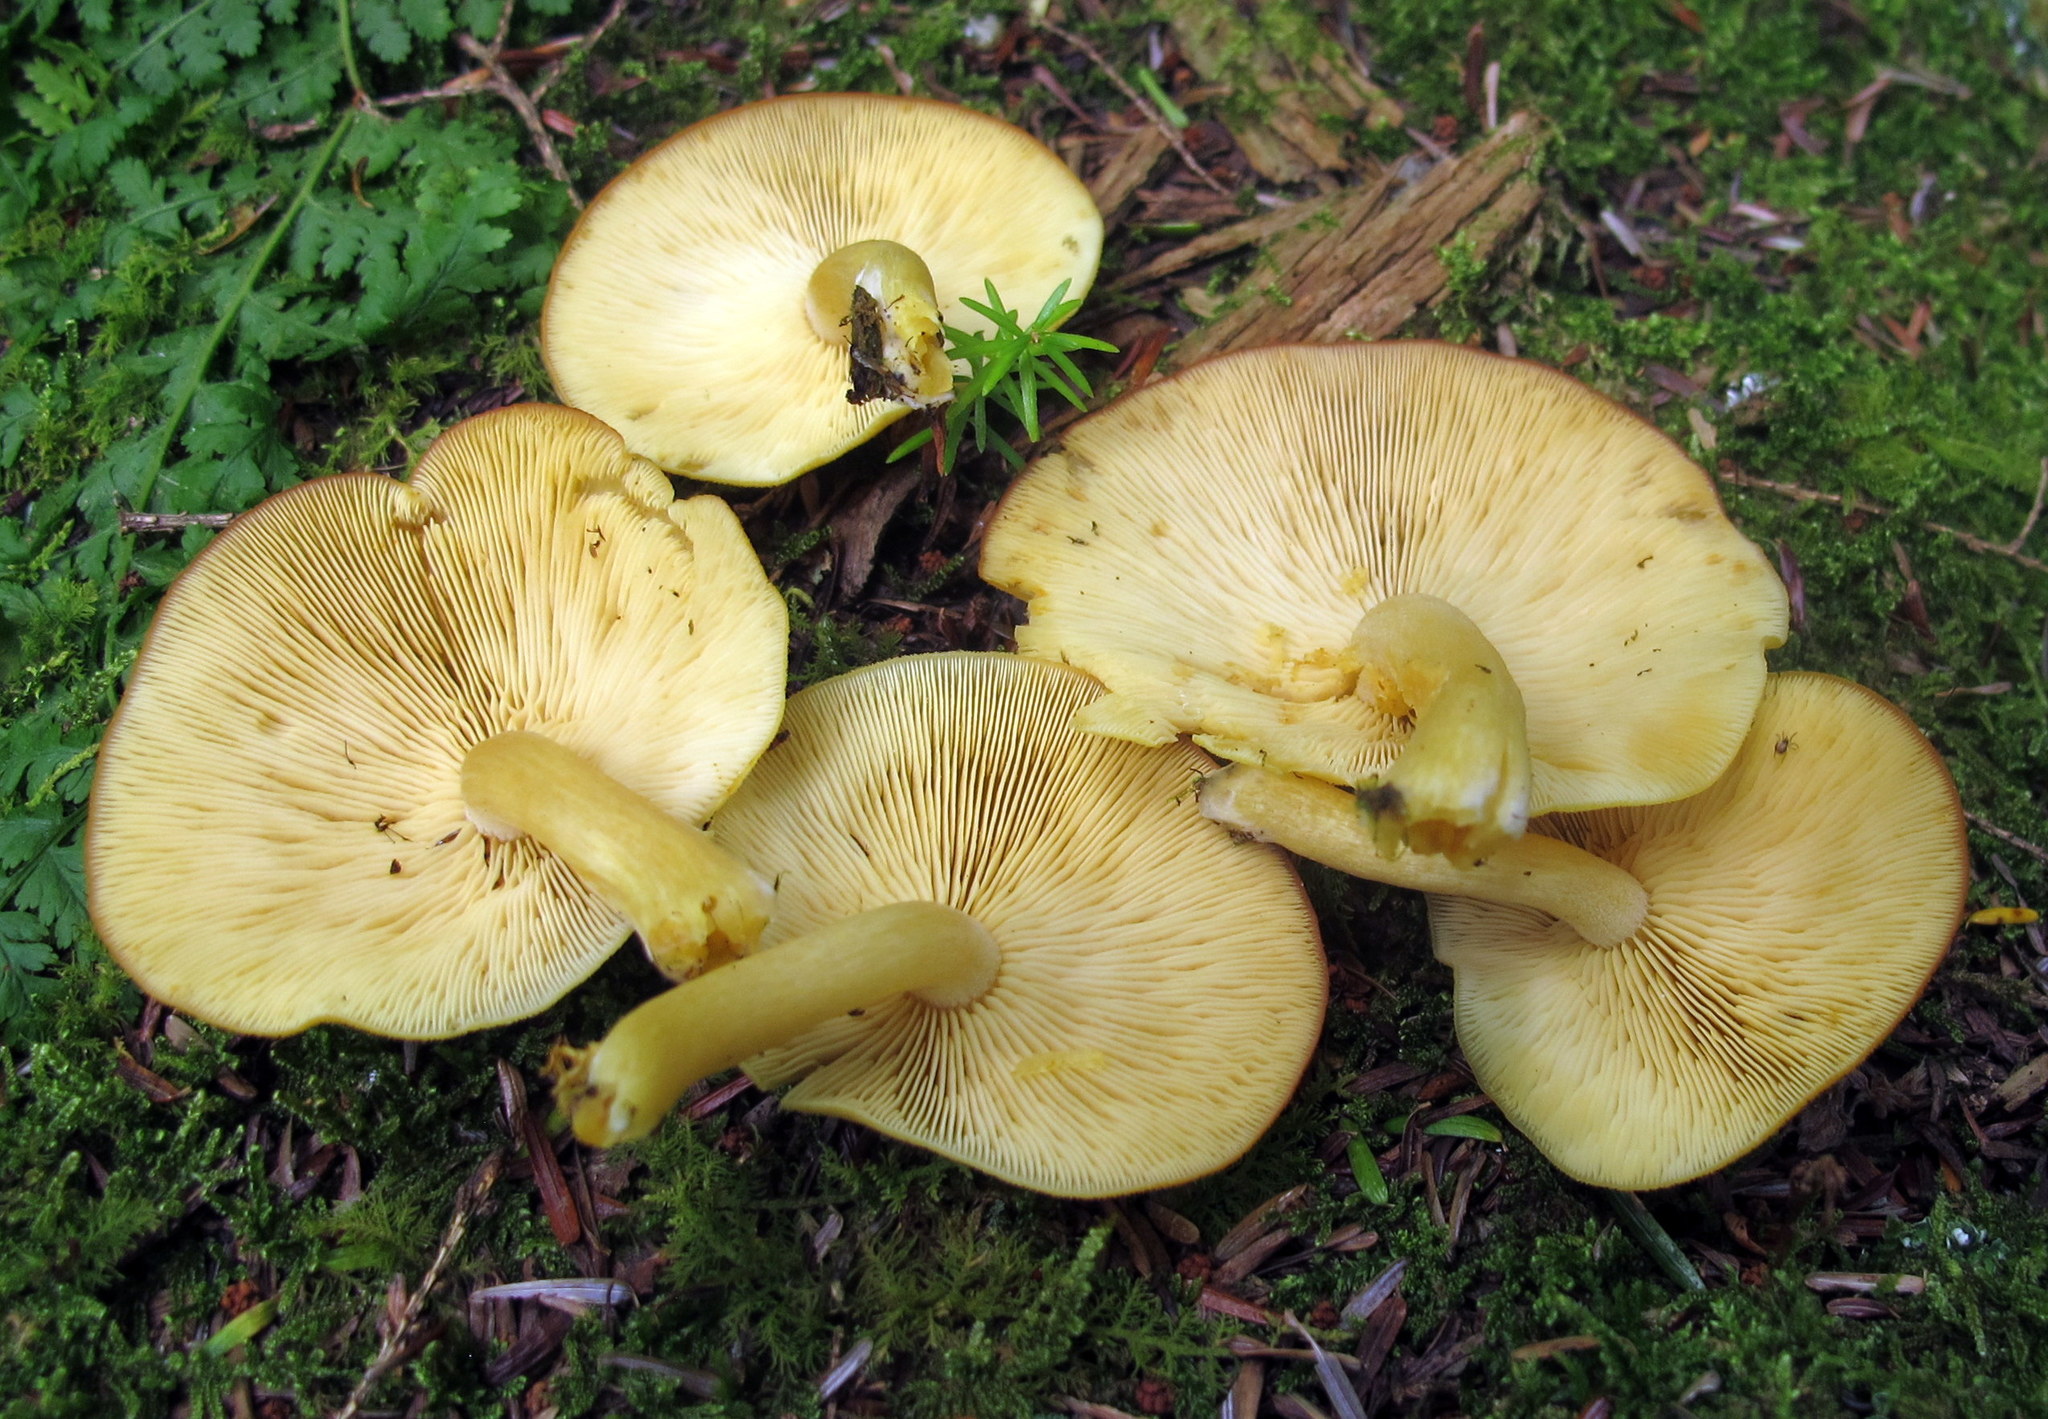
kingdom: Fungi
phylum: Basidiomycota
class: Agaricomycetes
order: Agaricales
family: Tricholomataceae
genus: Tricholomopsis
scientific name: Tricholomopsis decora
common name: Prunes and custard
